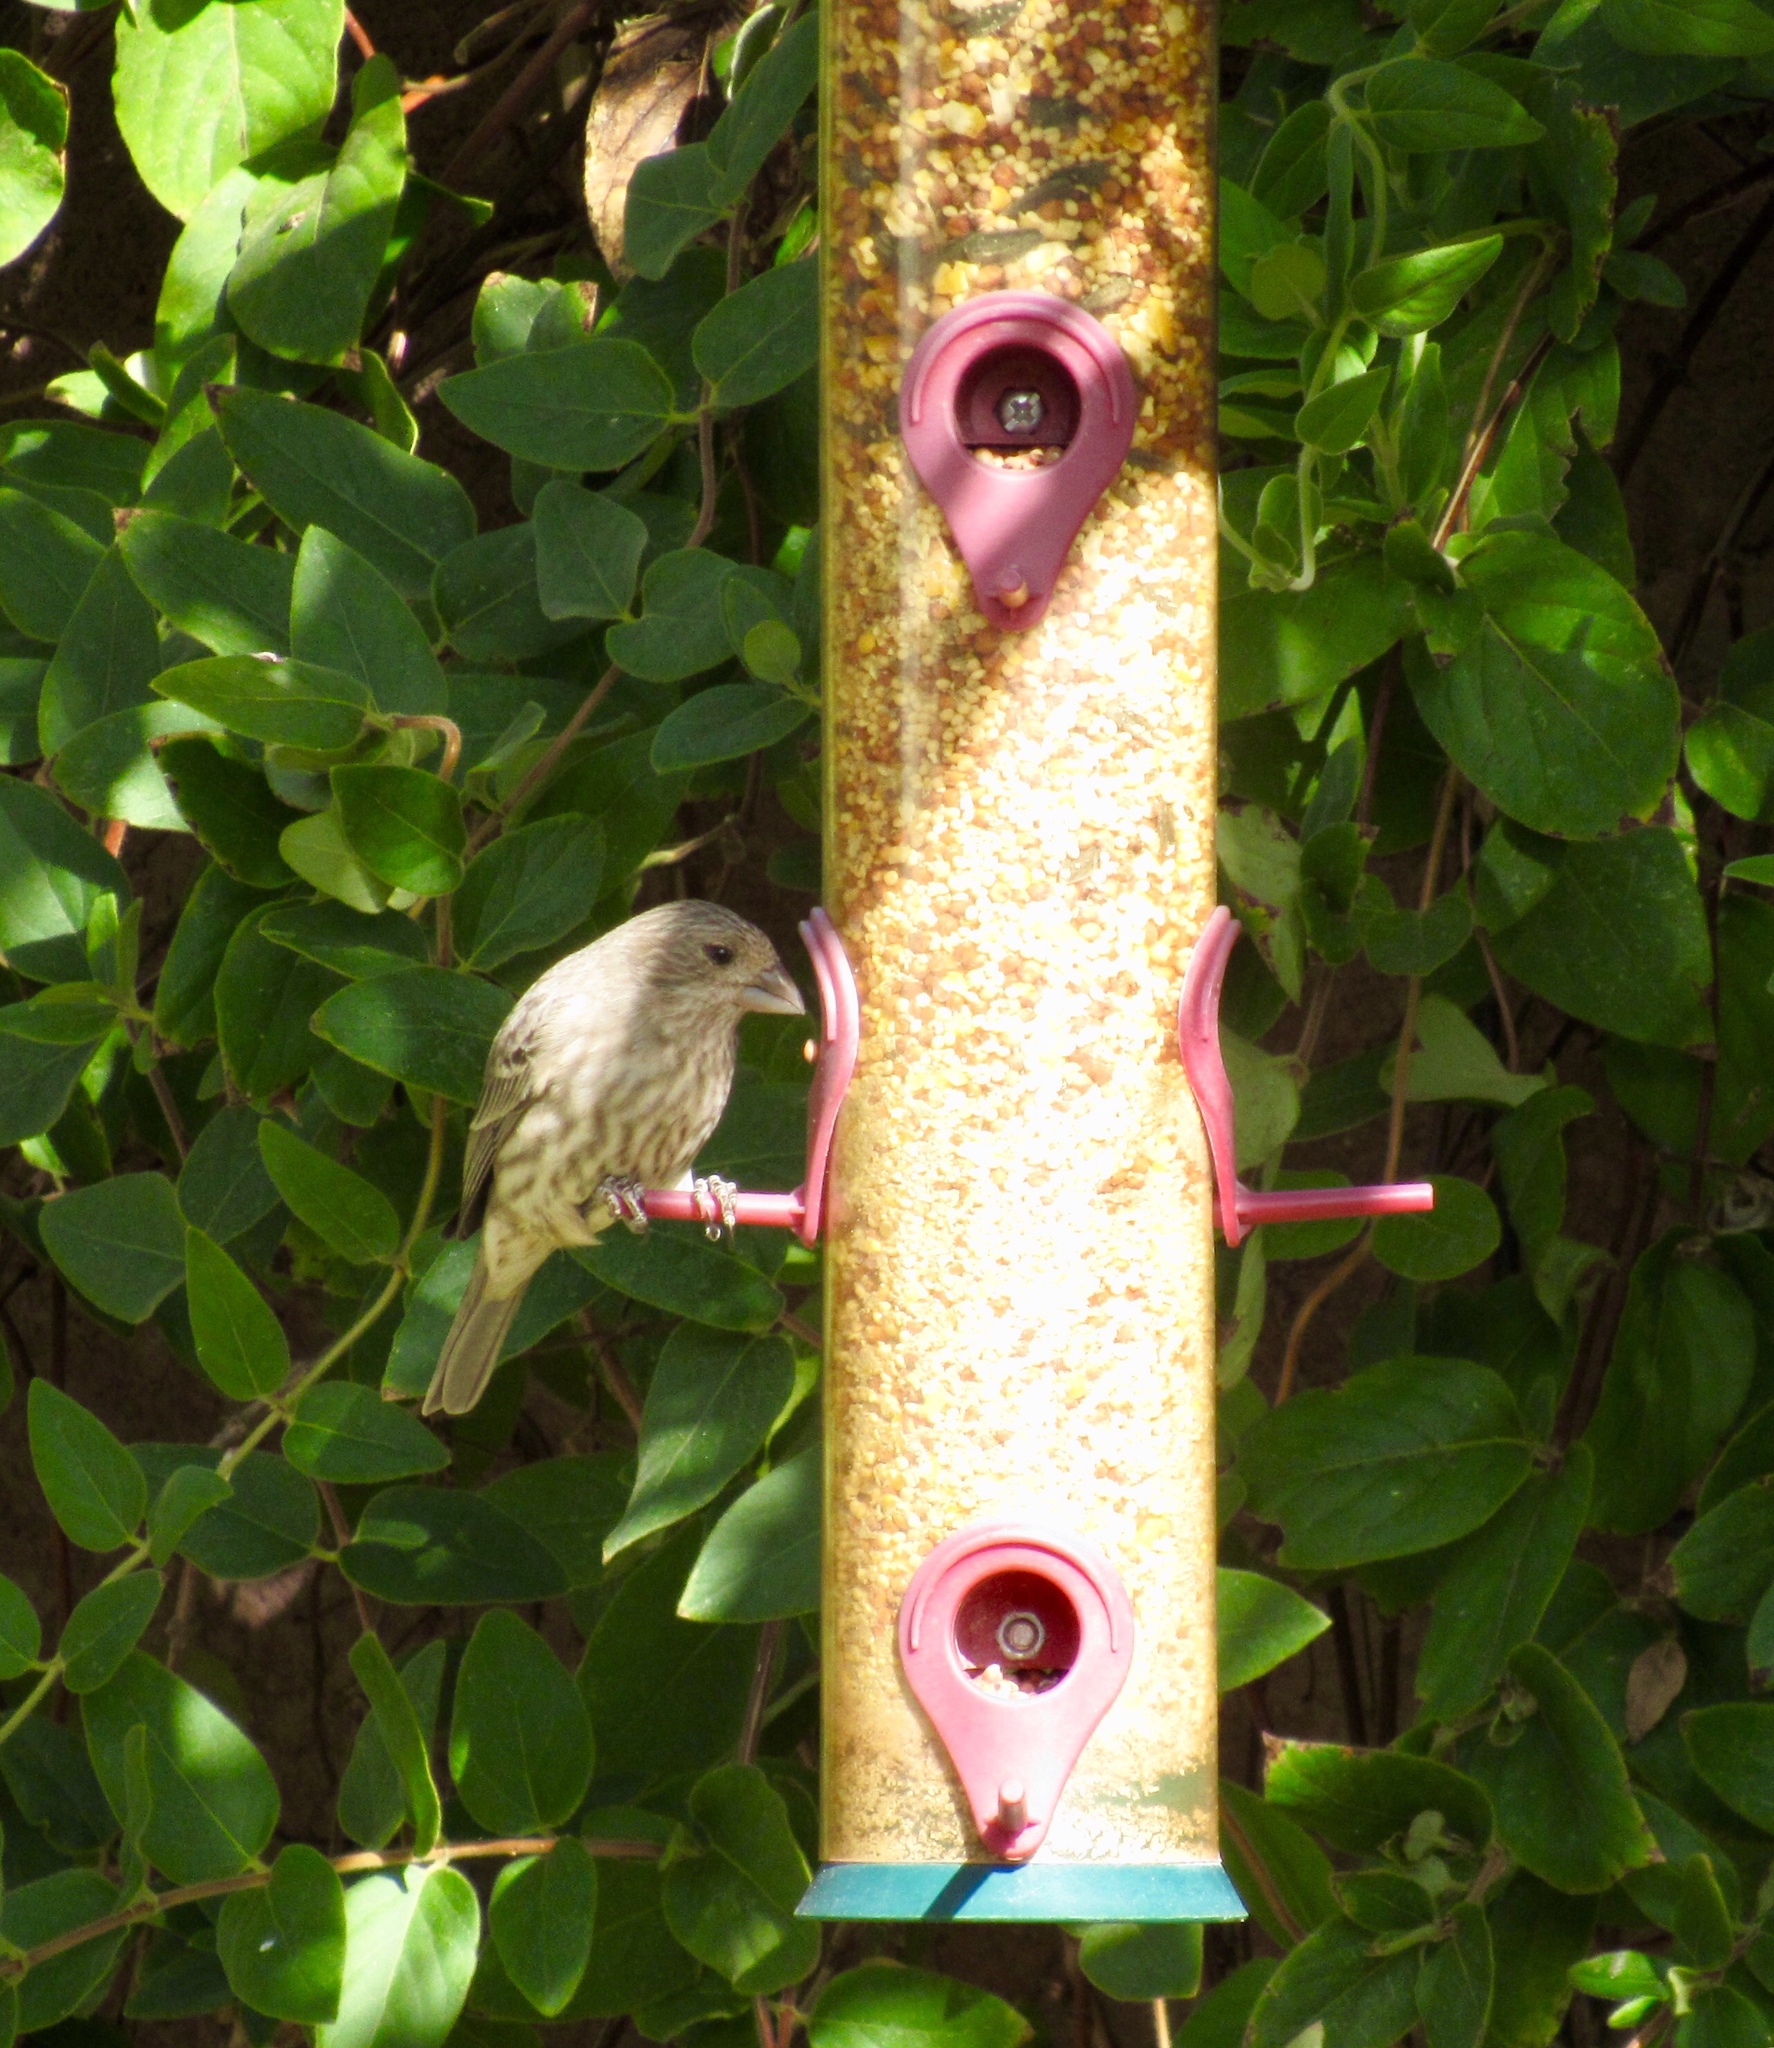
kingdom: Animalia
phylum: Chordata
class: Aves
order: Passeriformes
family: Fringillidae
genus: Haemorhous
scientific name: Haemorhous mexicanus
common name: House finch
